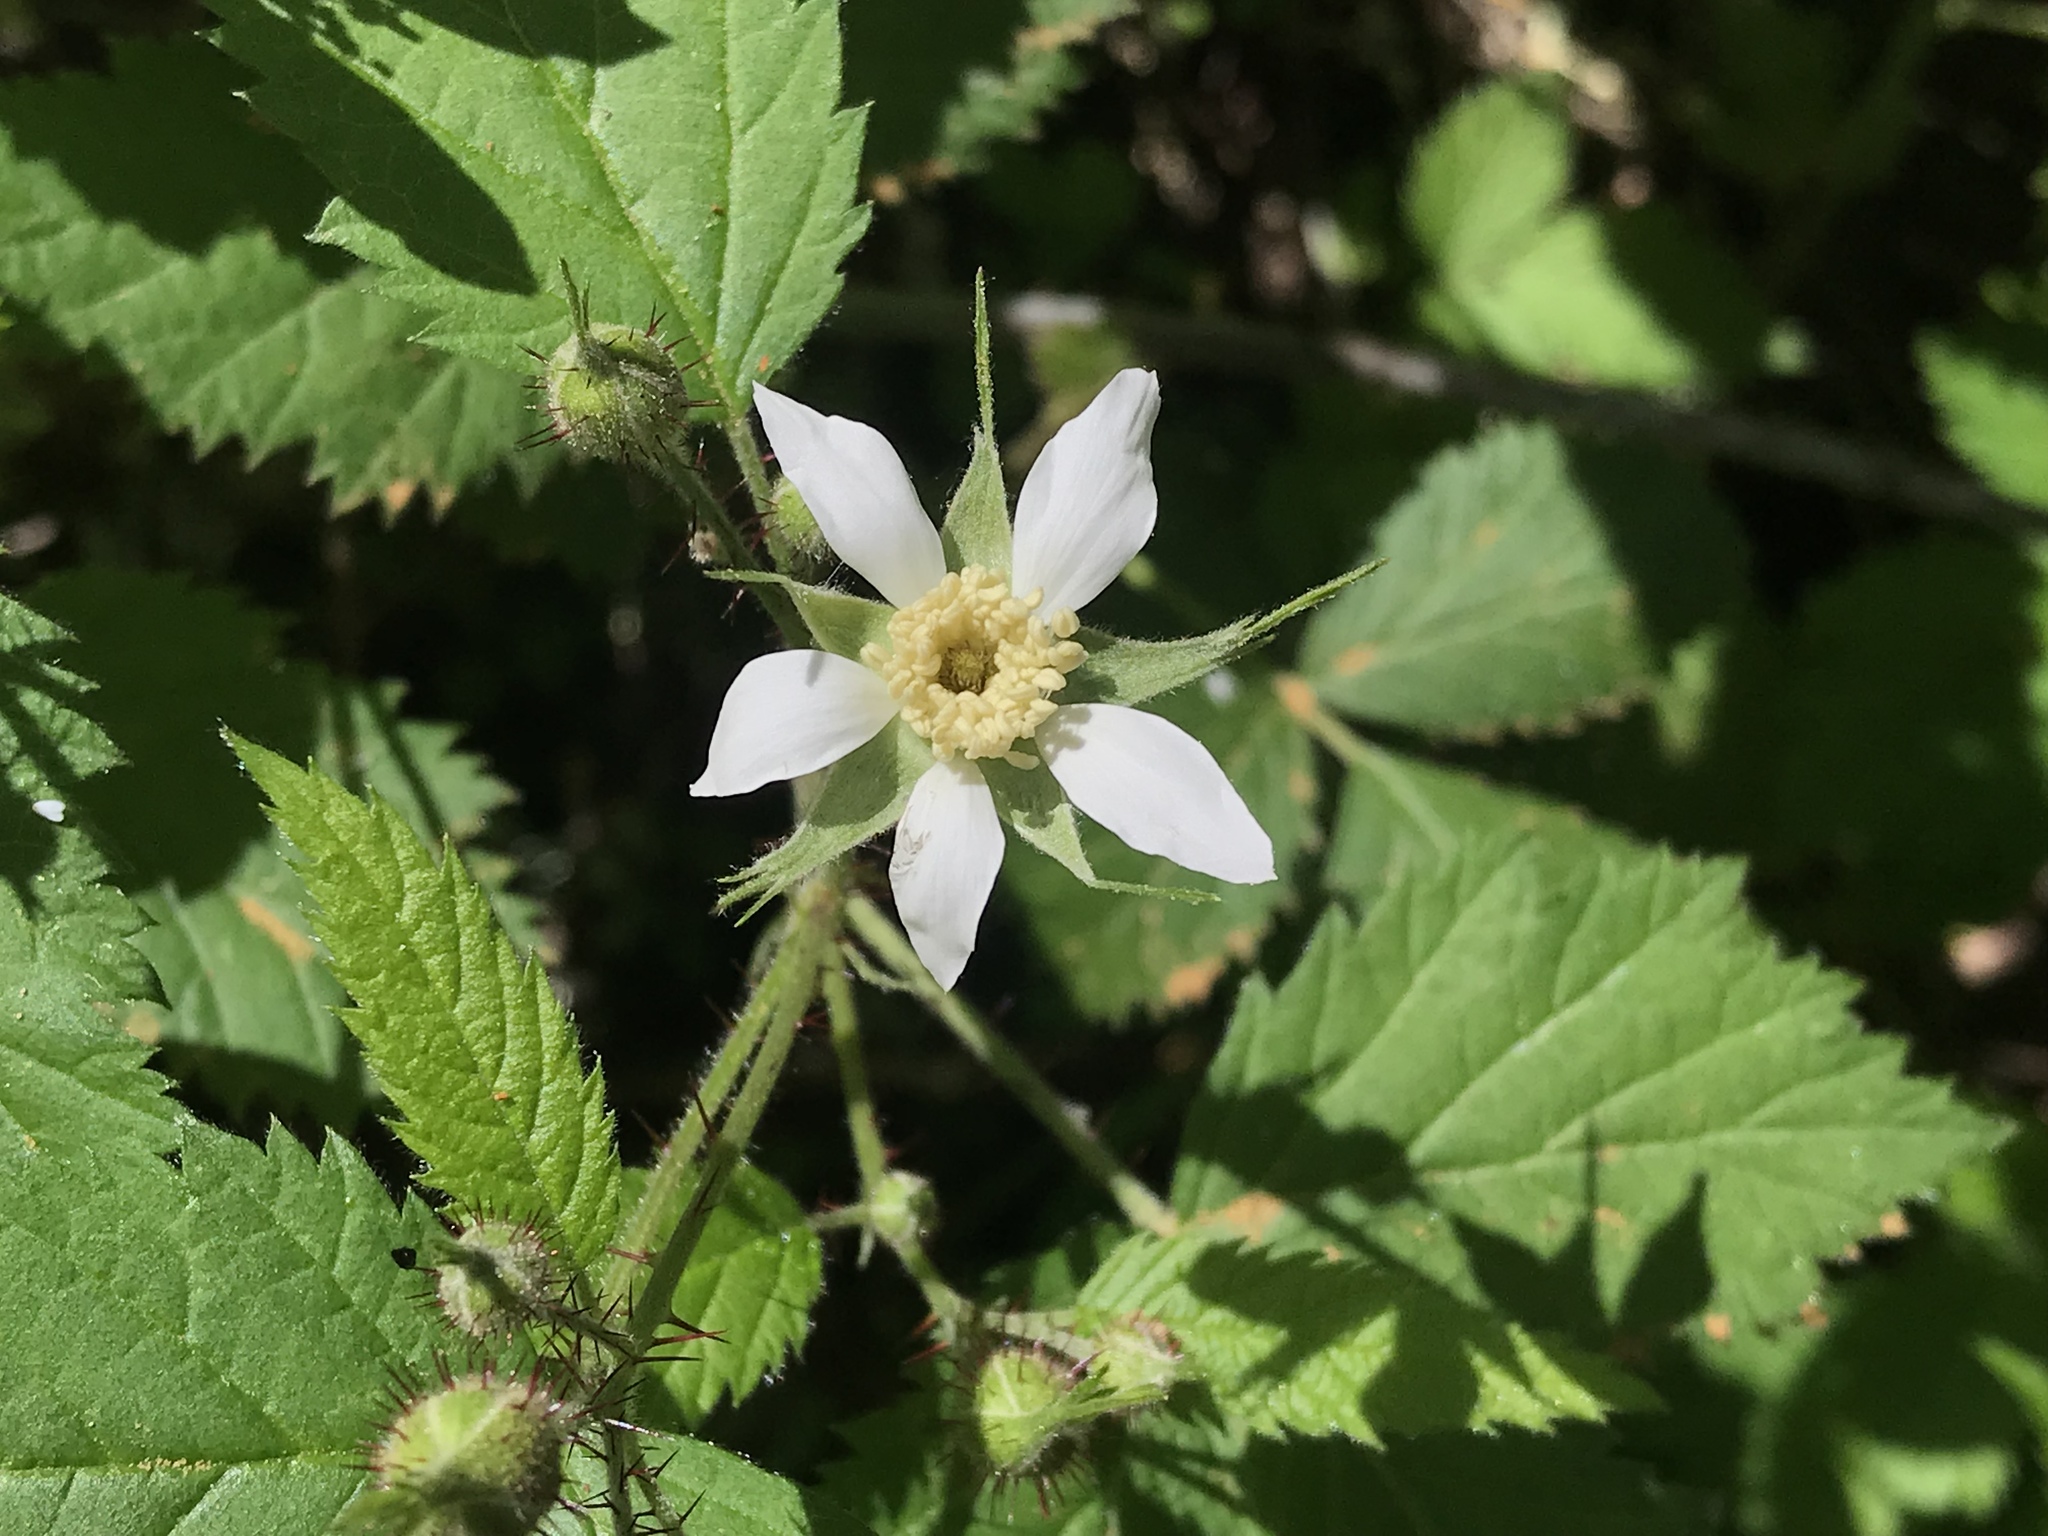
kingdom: Plantae
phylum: Tracheophyta
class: Magnoliopsida
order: Rosales
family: Rosaceae
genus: Rubus
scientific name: Rubus ursinus
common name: Pacific blackberry
